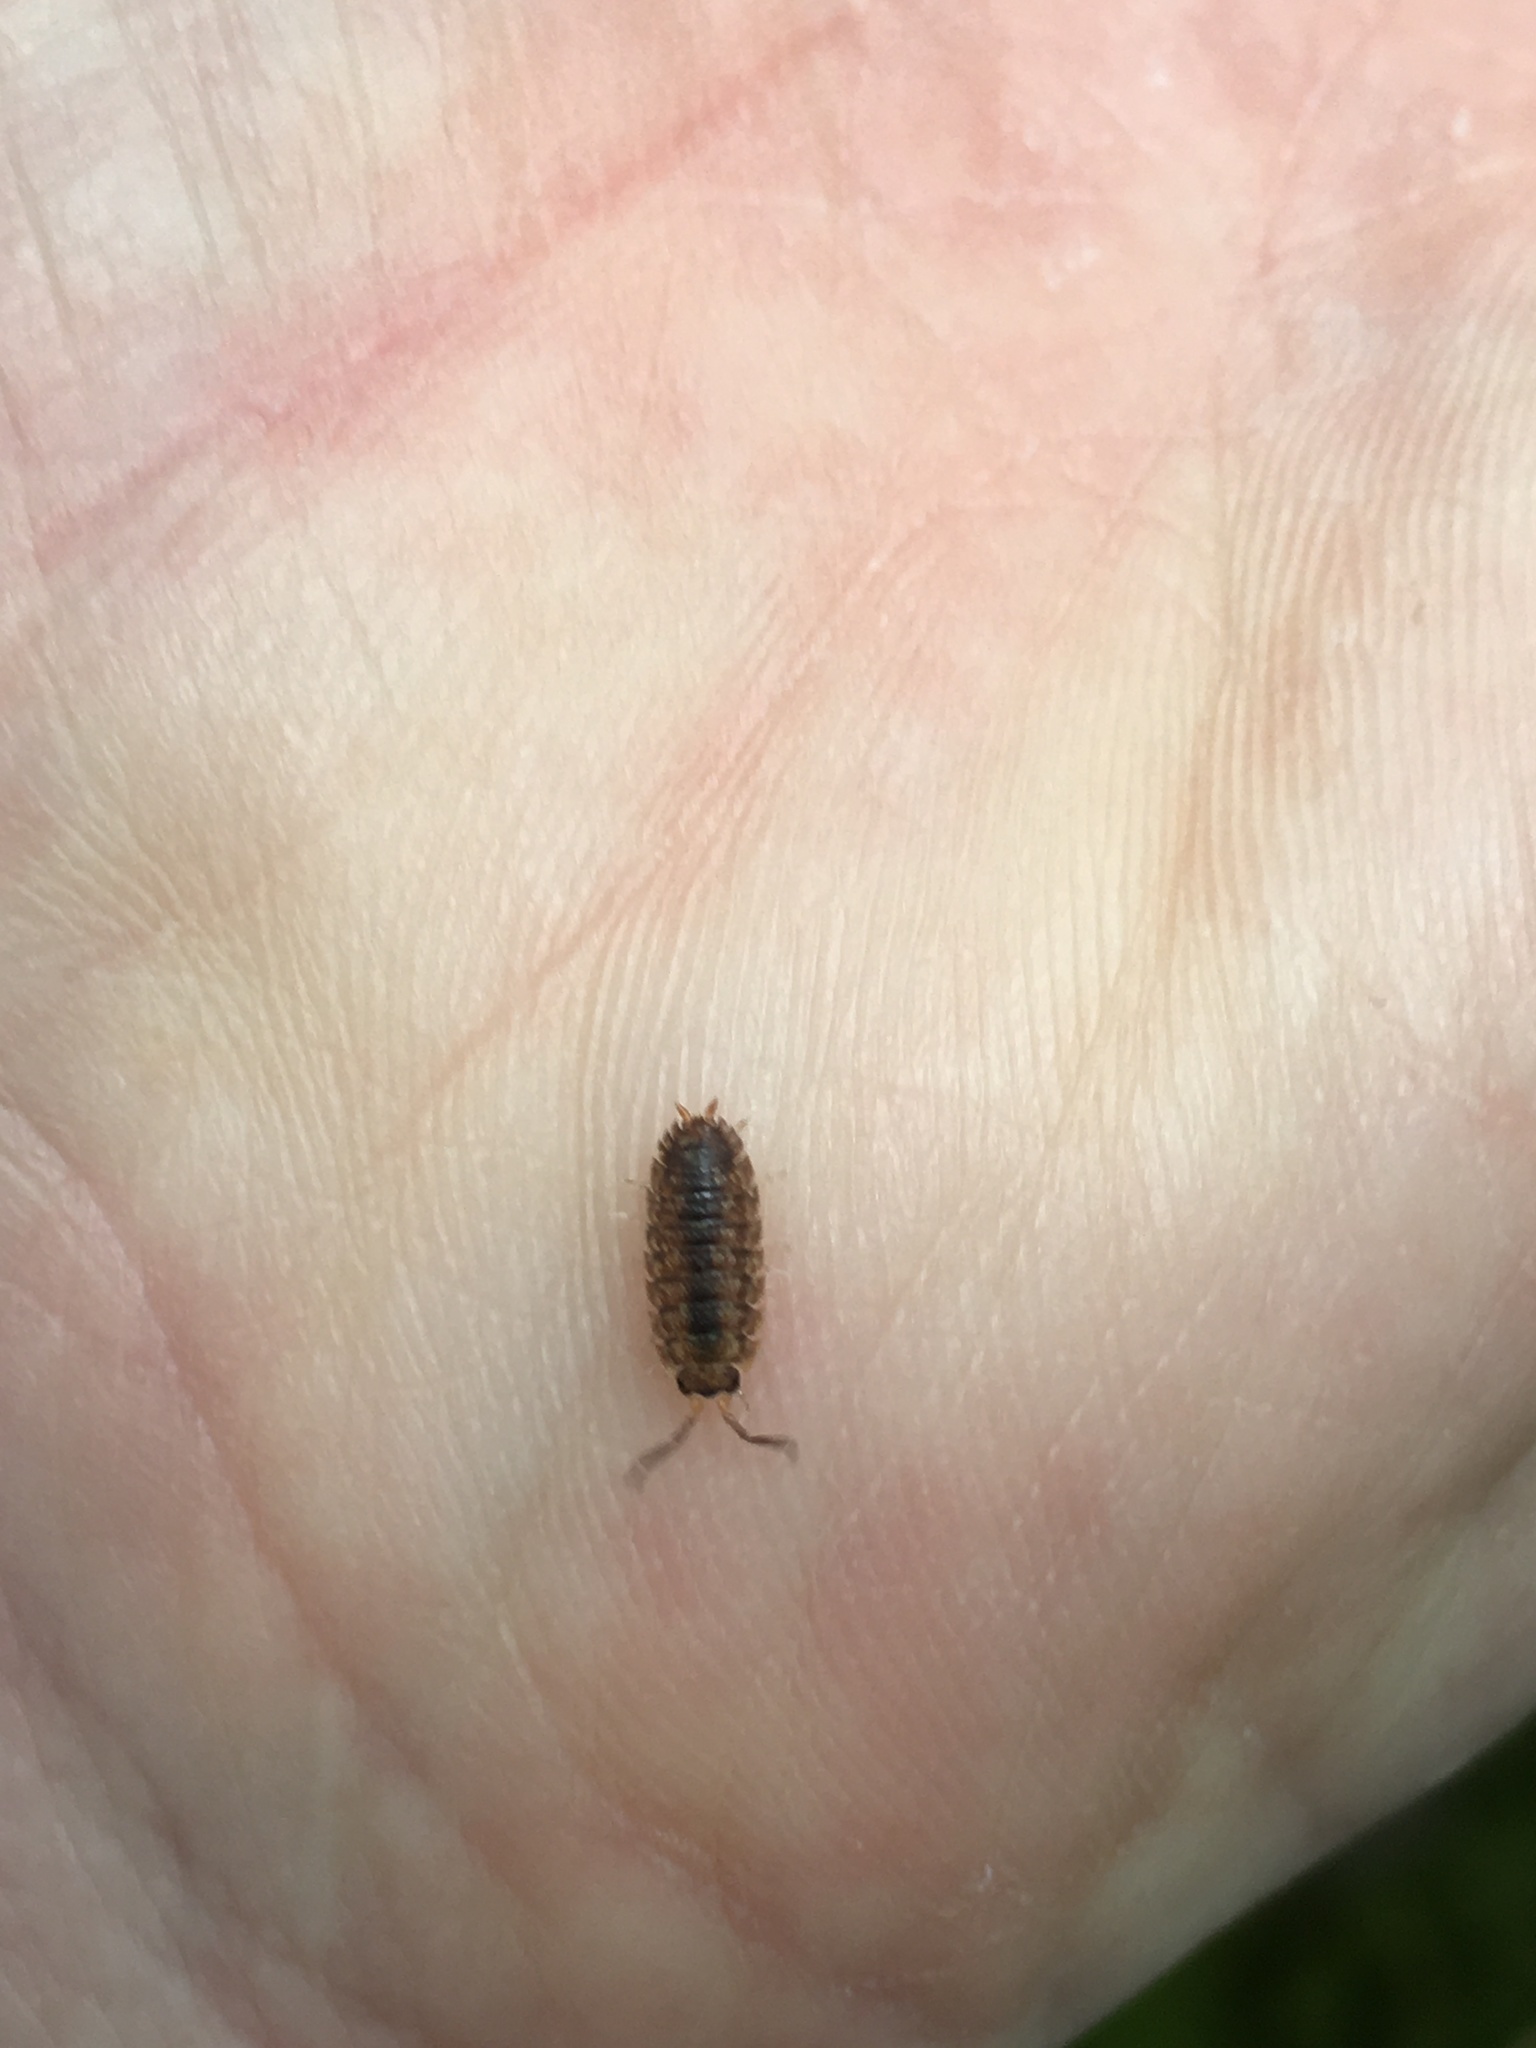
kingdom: Animalia
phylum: Arthropoda
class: Malacostraca
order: Isopoda
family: Porcellionidae
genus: Porcellio
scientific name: Porcellio scaber
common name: Common rough woodlouse
